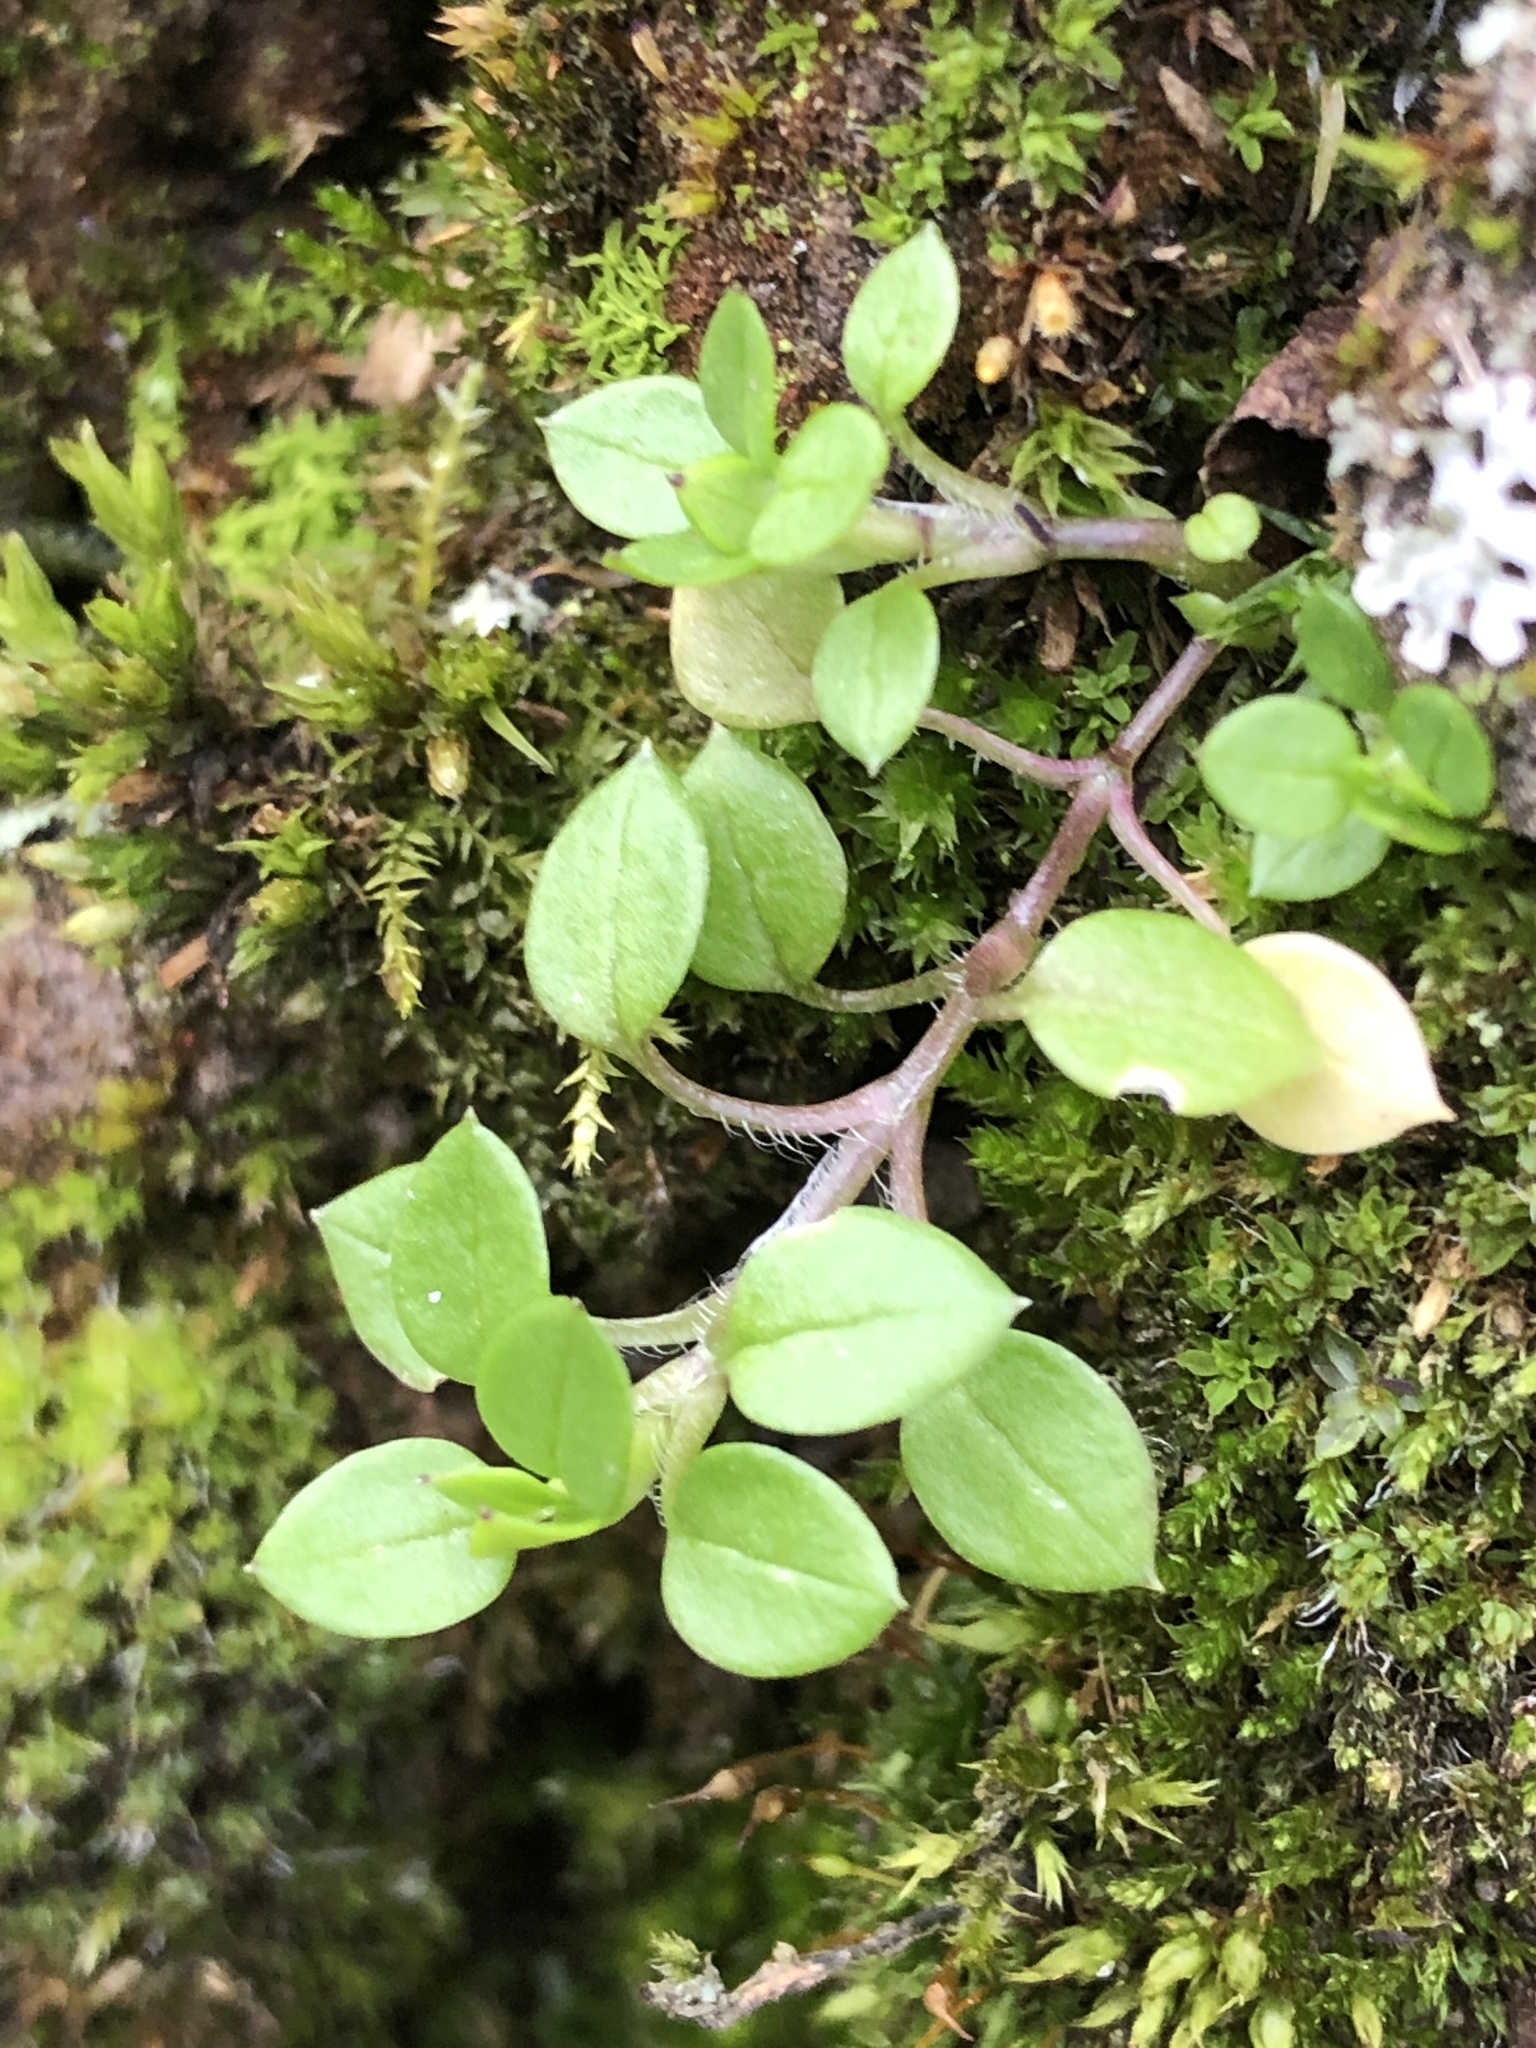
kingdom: Plantae
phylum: Tracheophyta
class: Magnoliopsida
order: Caryophyllales
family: Caryophyllaceae
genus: Stellaria
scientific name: Stellaria media
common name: Common chickweed
